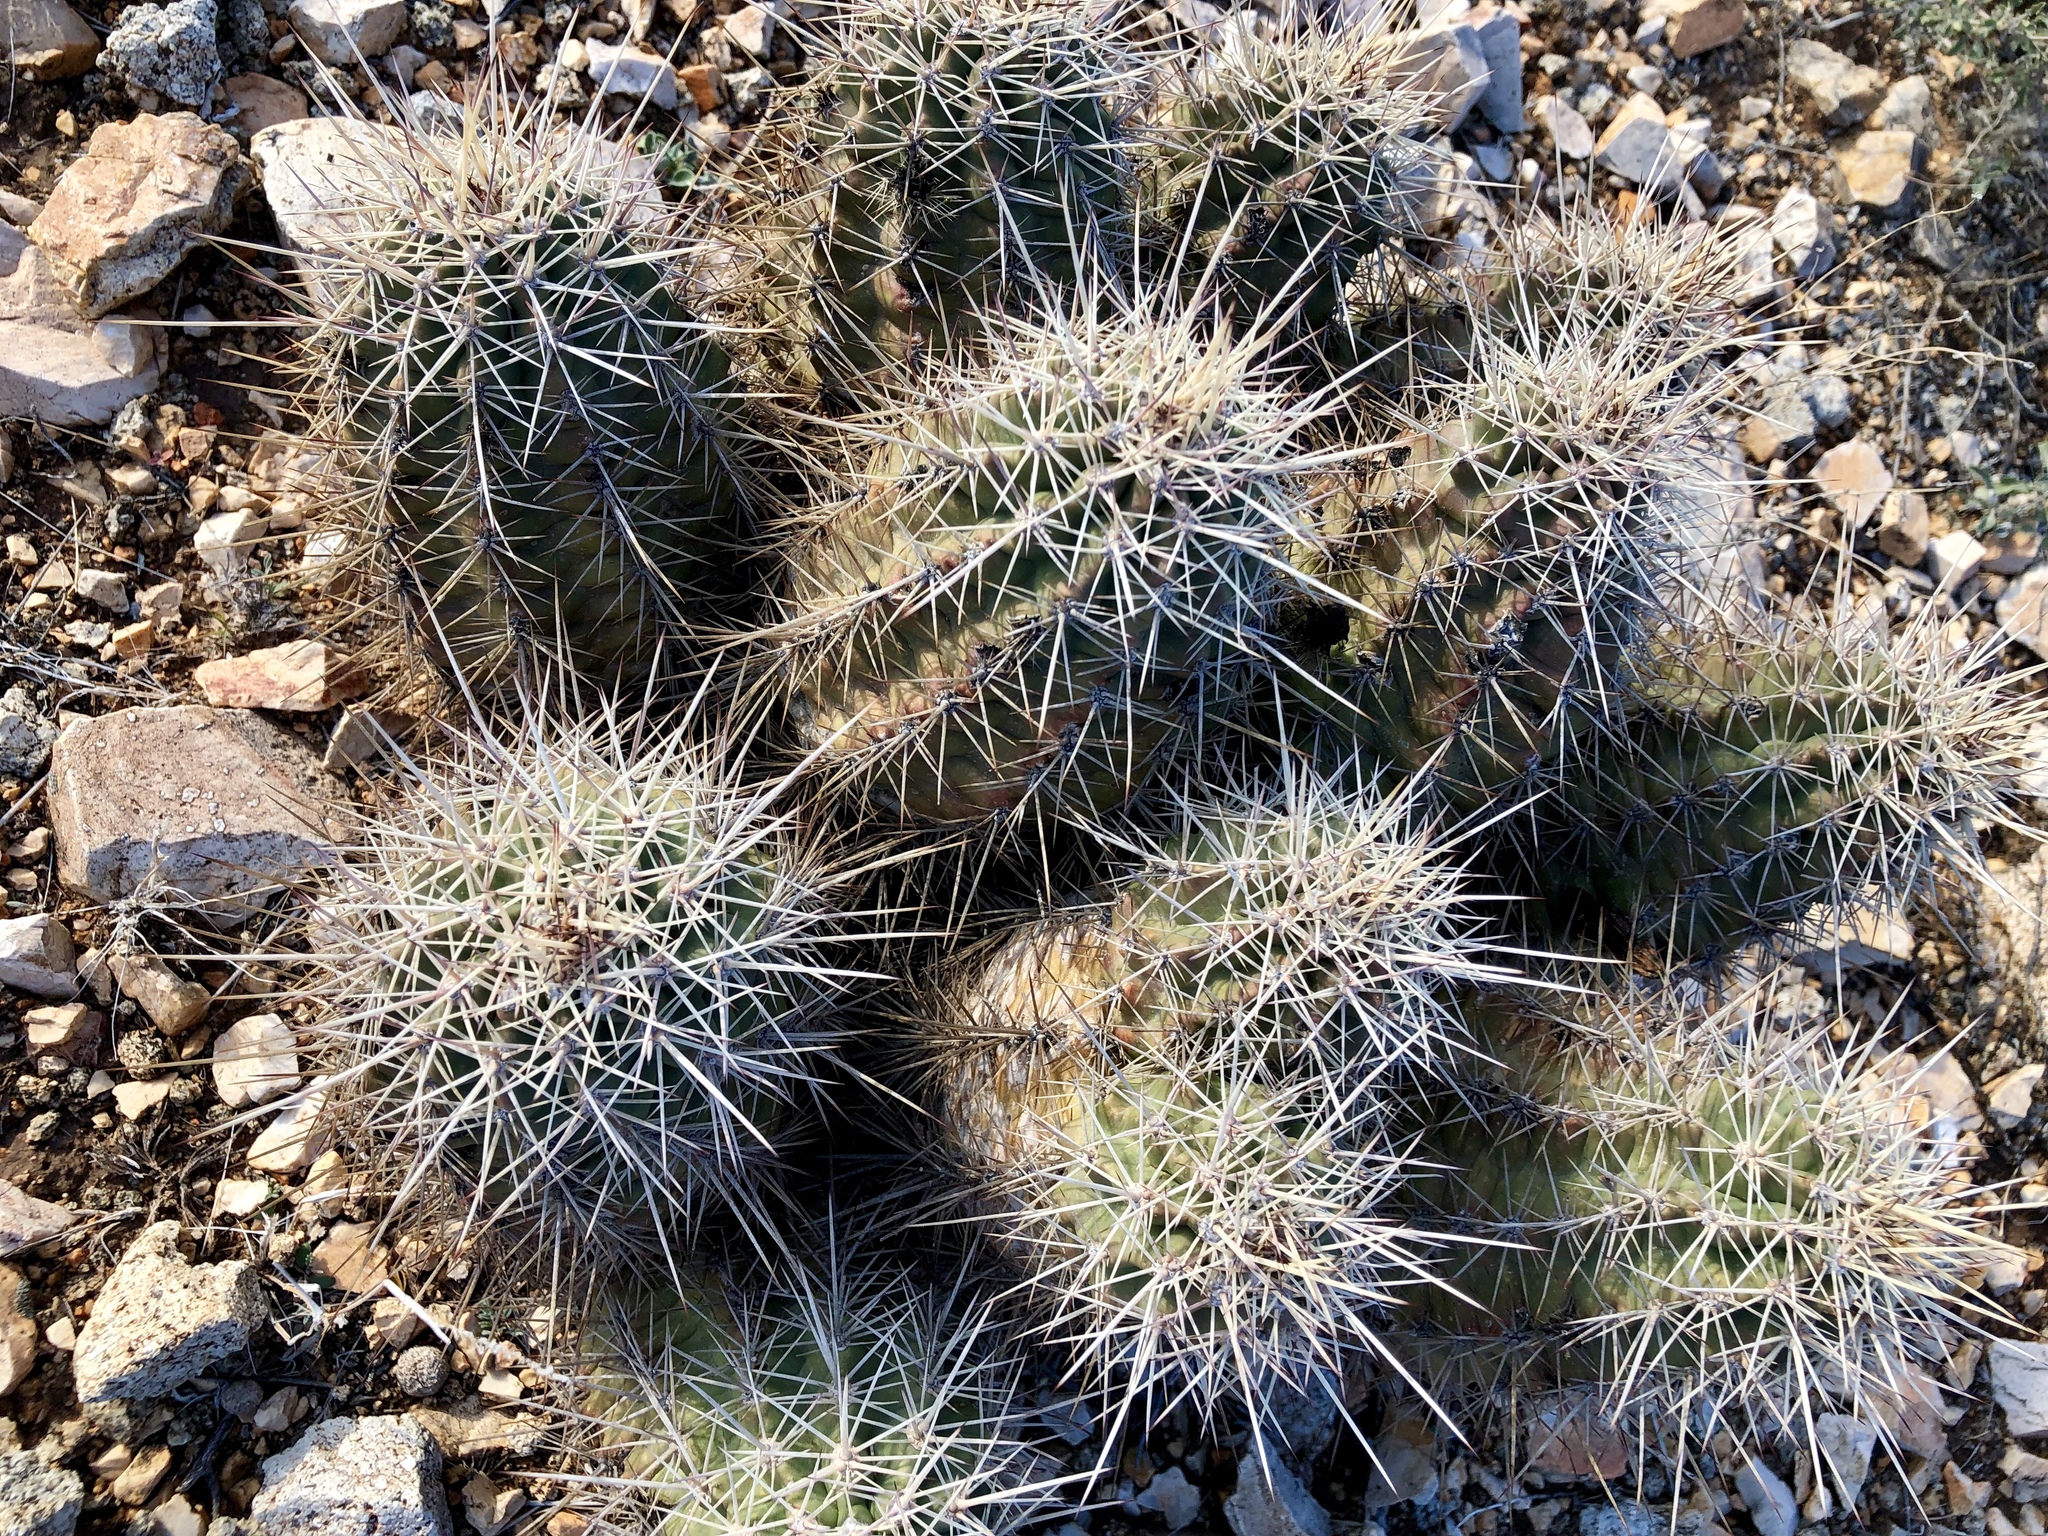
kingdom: Plantae
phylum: Tracheophyta
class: Magnoliopsida
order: Caryophyllales
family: Cactaceae
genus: Echinocereus
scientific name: Echinocereus coccineus
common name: Scarlet hedgehog cactus
